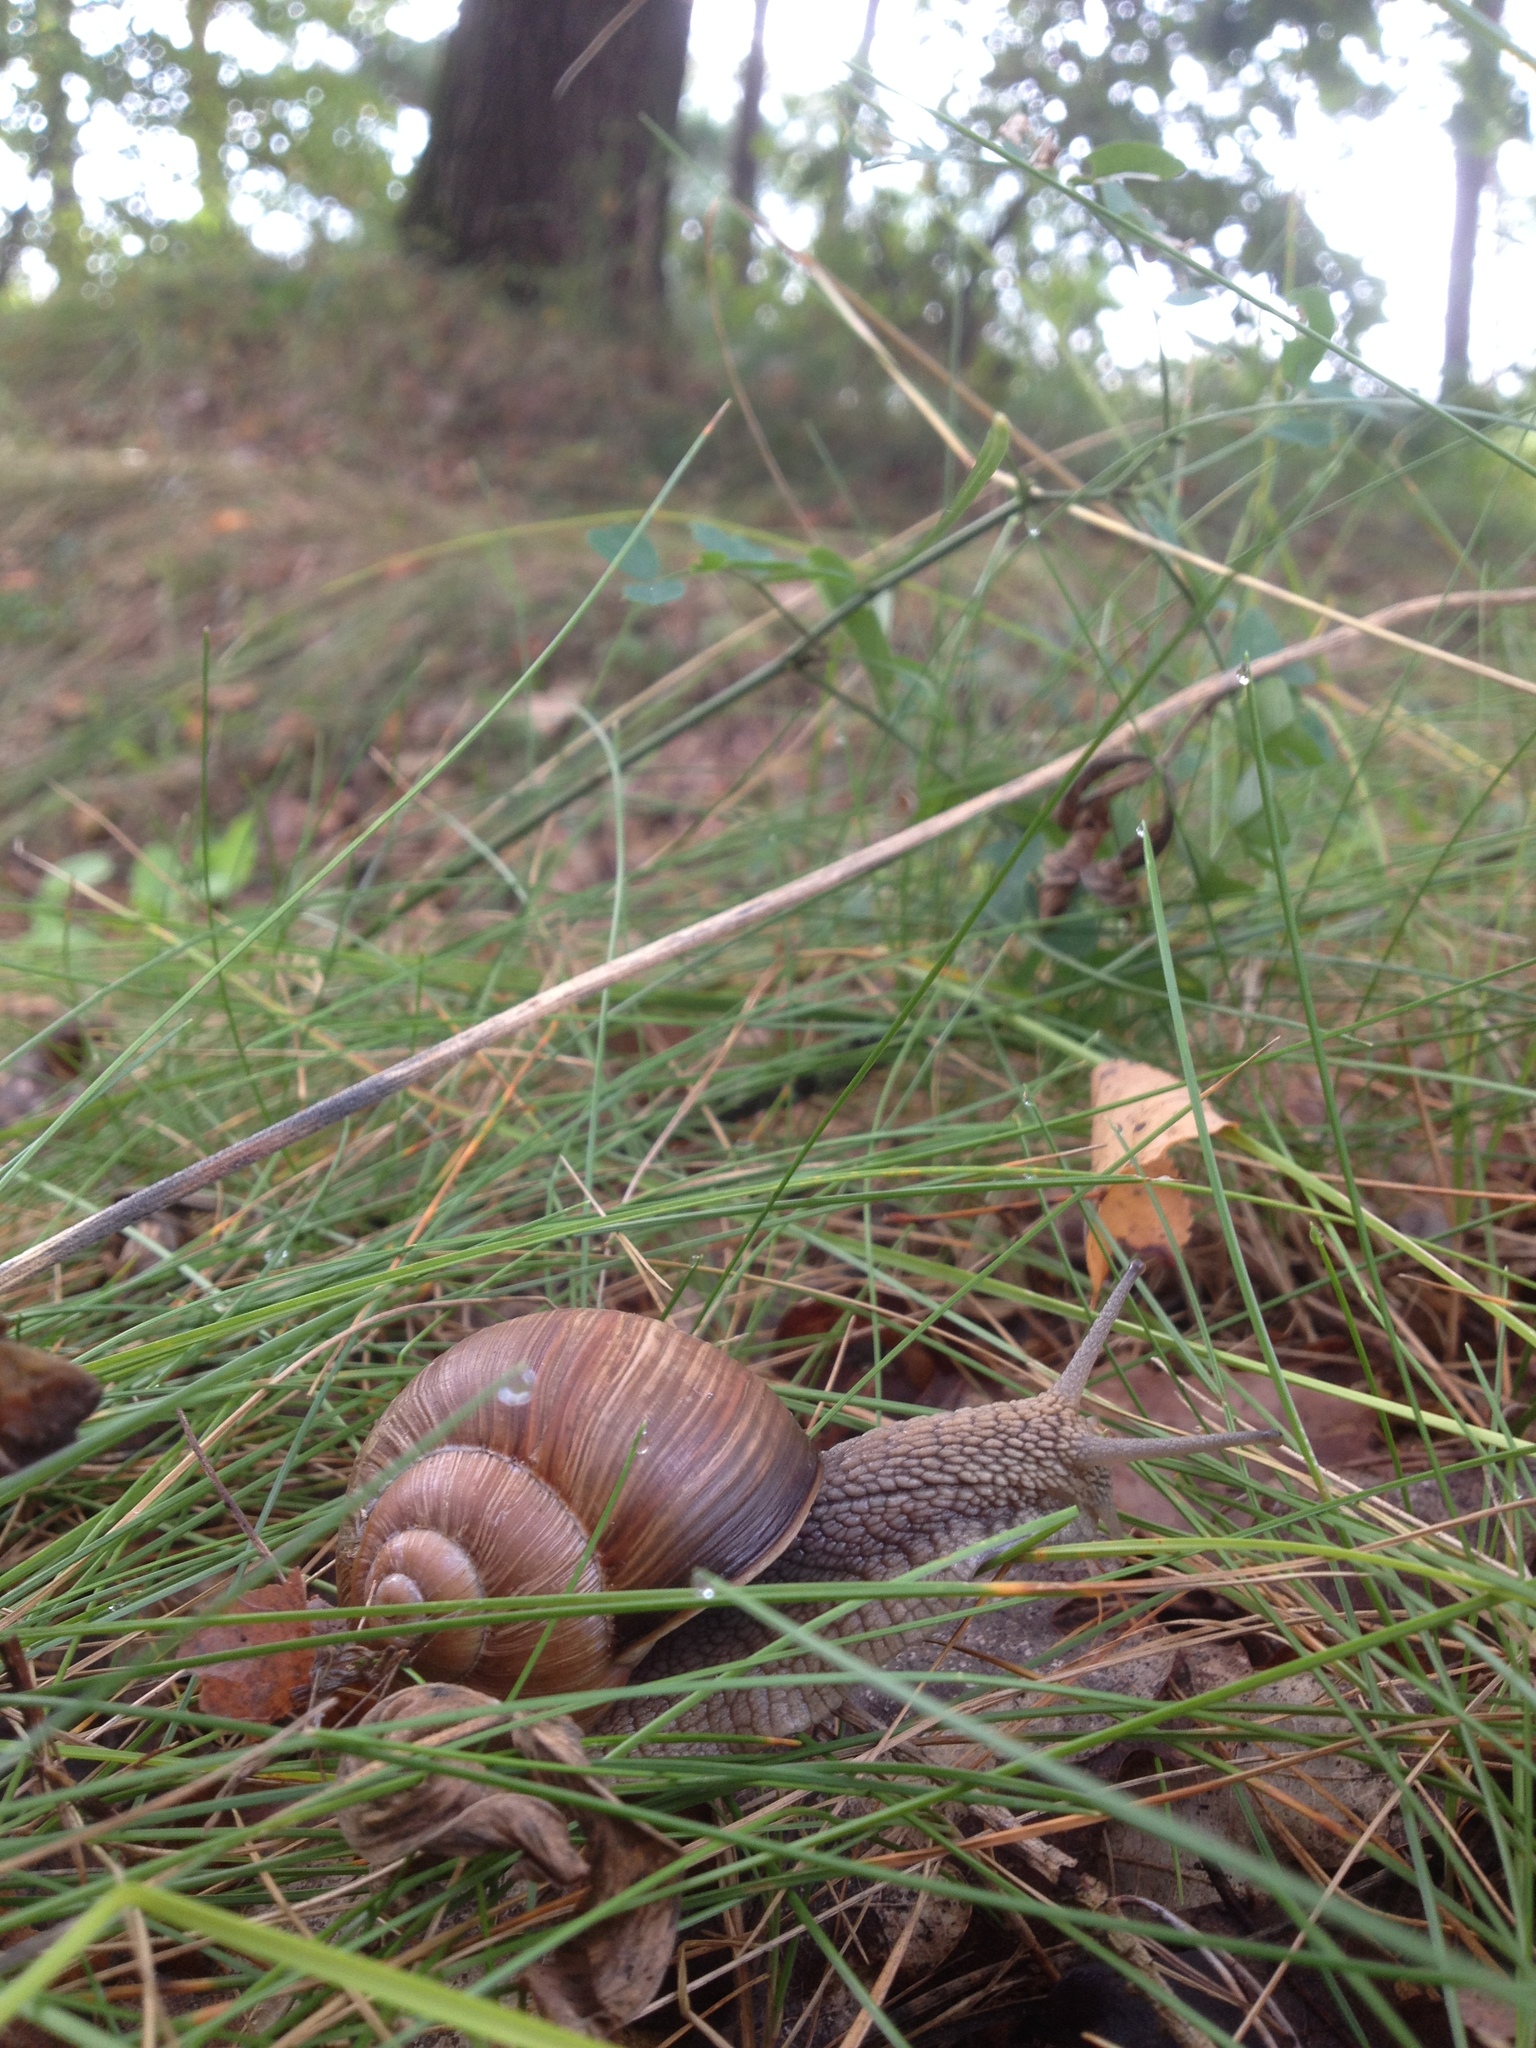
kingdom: Animalia
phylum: Mollusca
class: Gastropoda
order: Stylommatophora
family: Helicidae
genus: Helix
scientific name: Helix pomatia
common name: Roman snail
